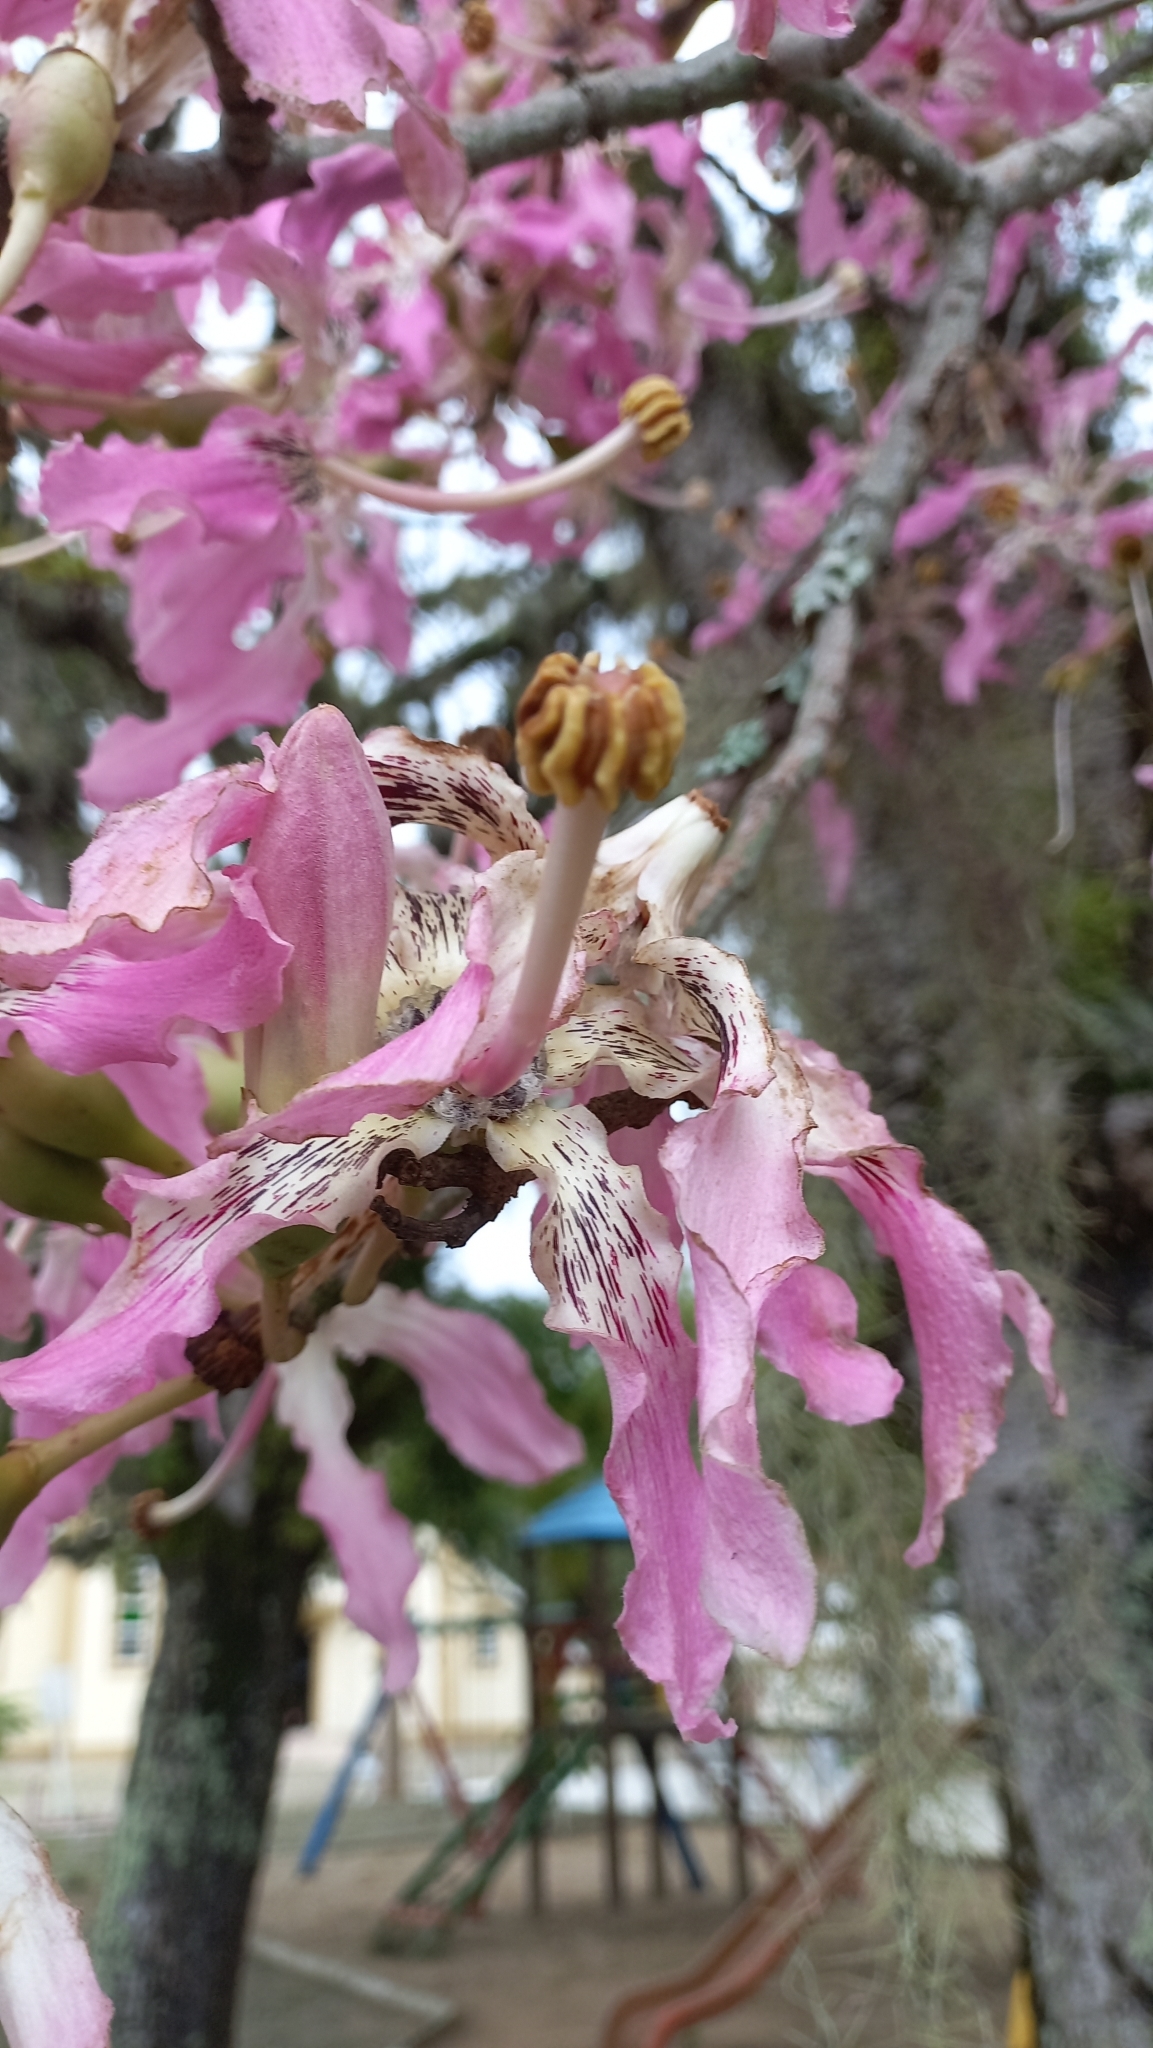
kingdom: Plantae
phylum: Tracheophyta
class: Magnoliopsida
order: Malvales
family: Malvaceae
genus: Ceiba
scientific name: Ceiba speciosa
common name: Silk-floss tree
